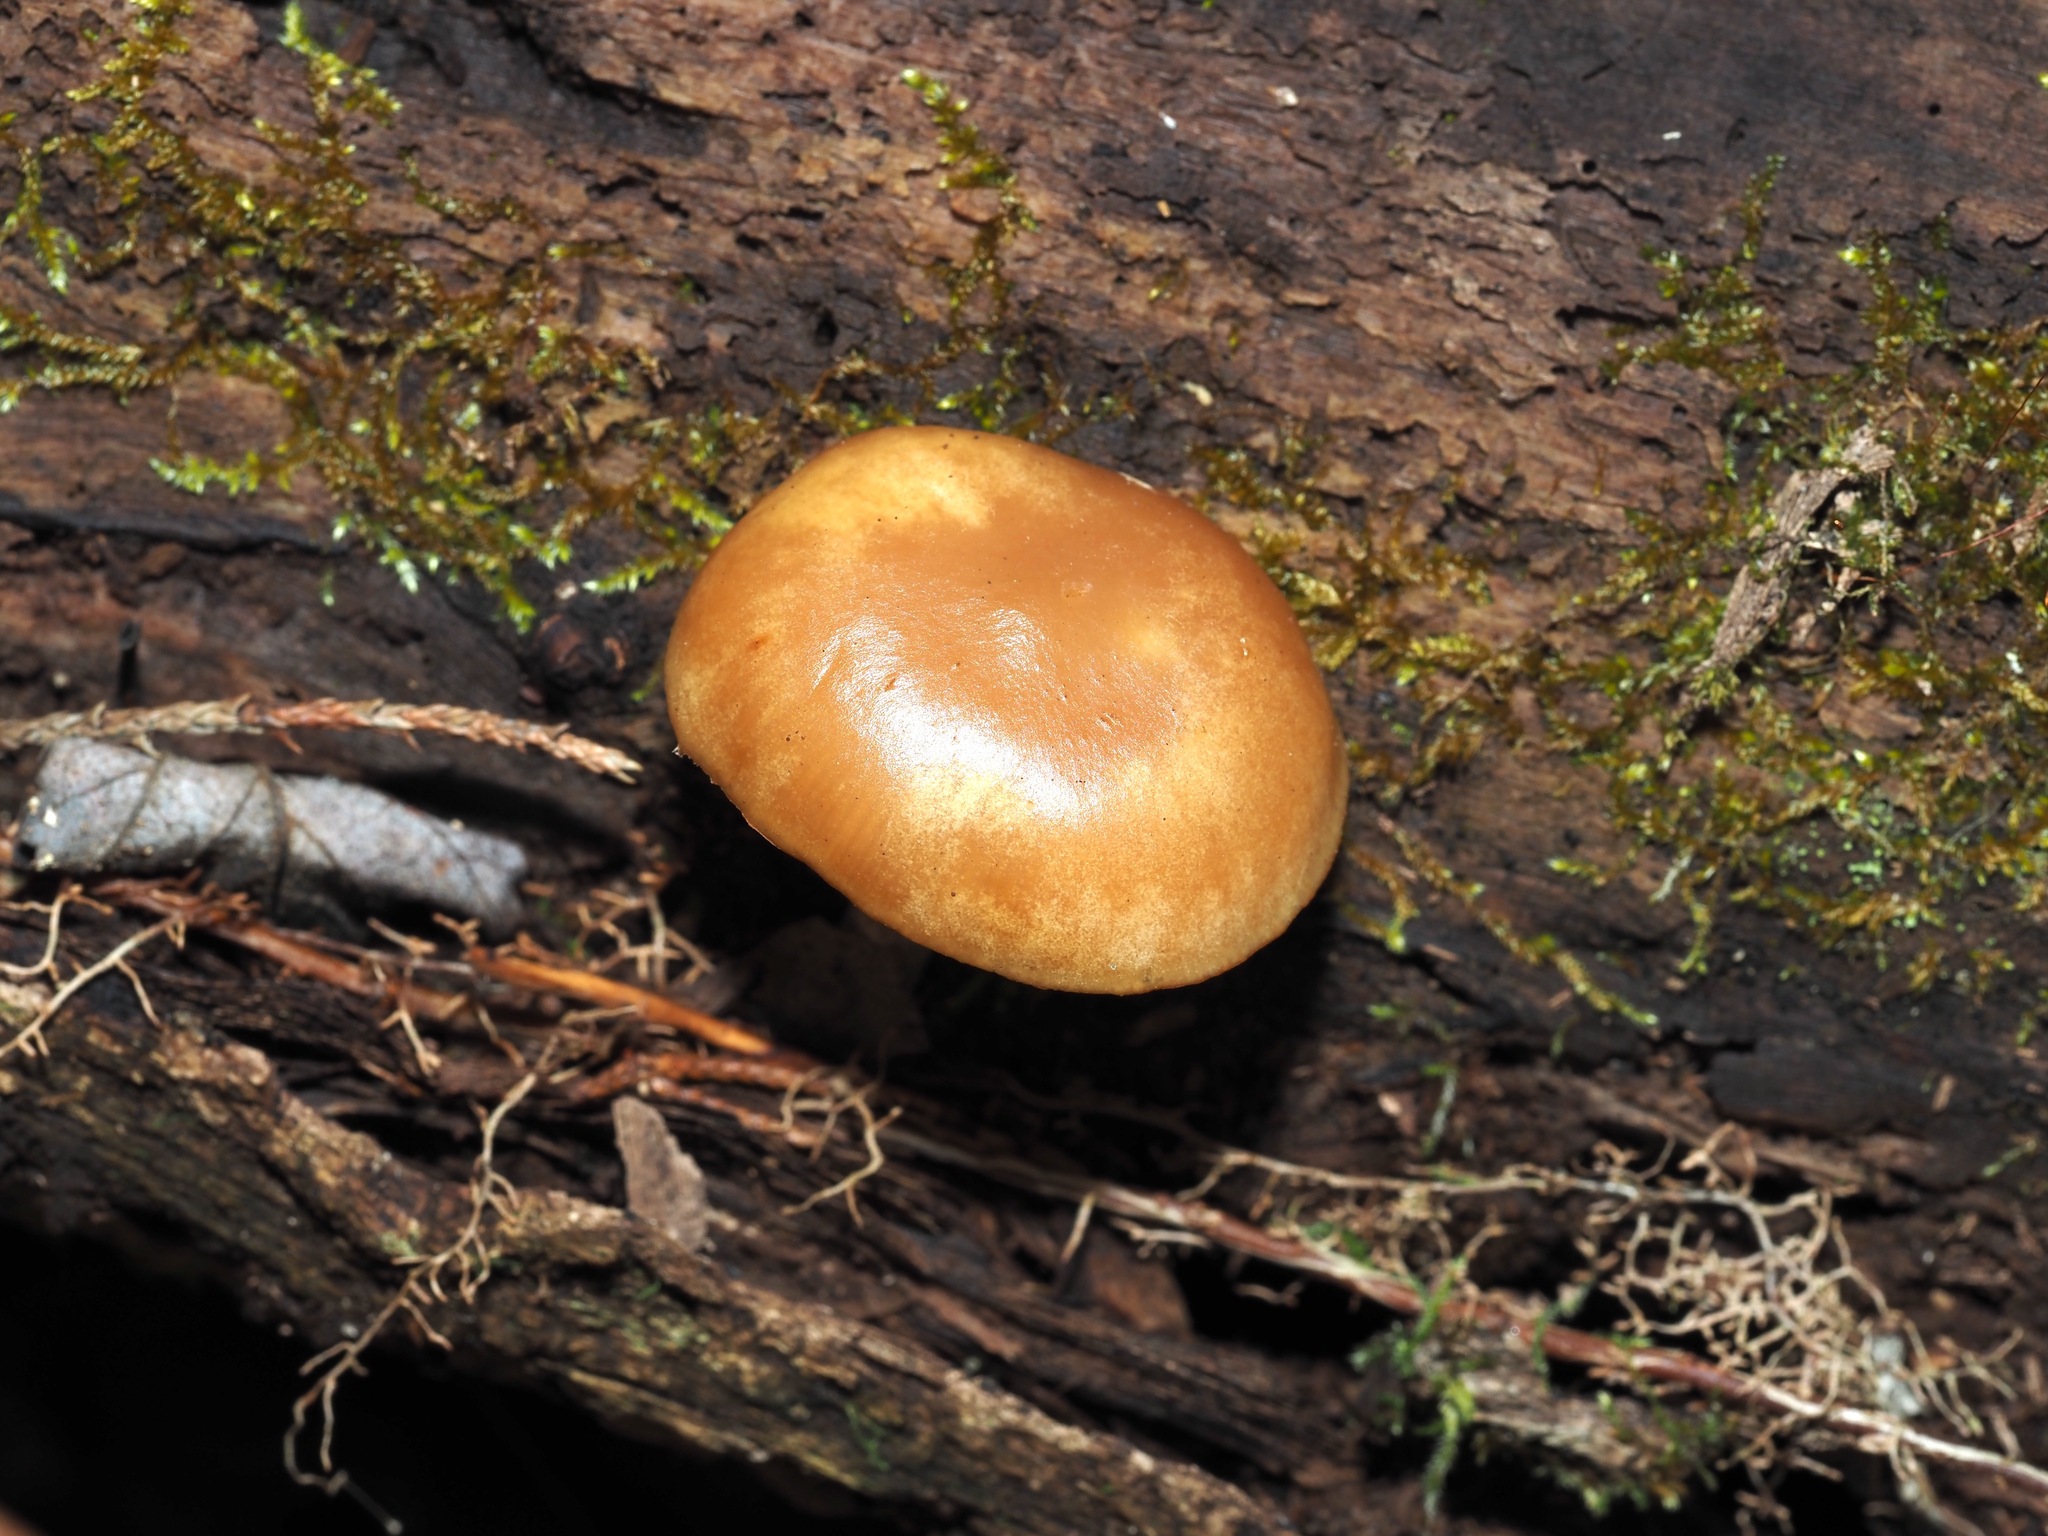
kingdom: Fungi
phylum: Basidiomycota
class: Agaricomycetes
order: Agaricales
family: Hymenogastraceae
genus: Galerina
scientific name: Galerina marginata
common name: Funeral bell
